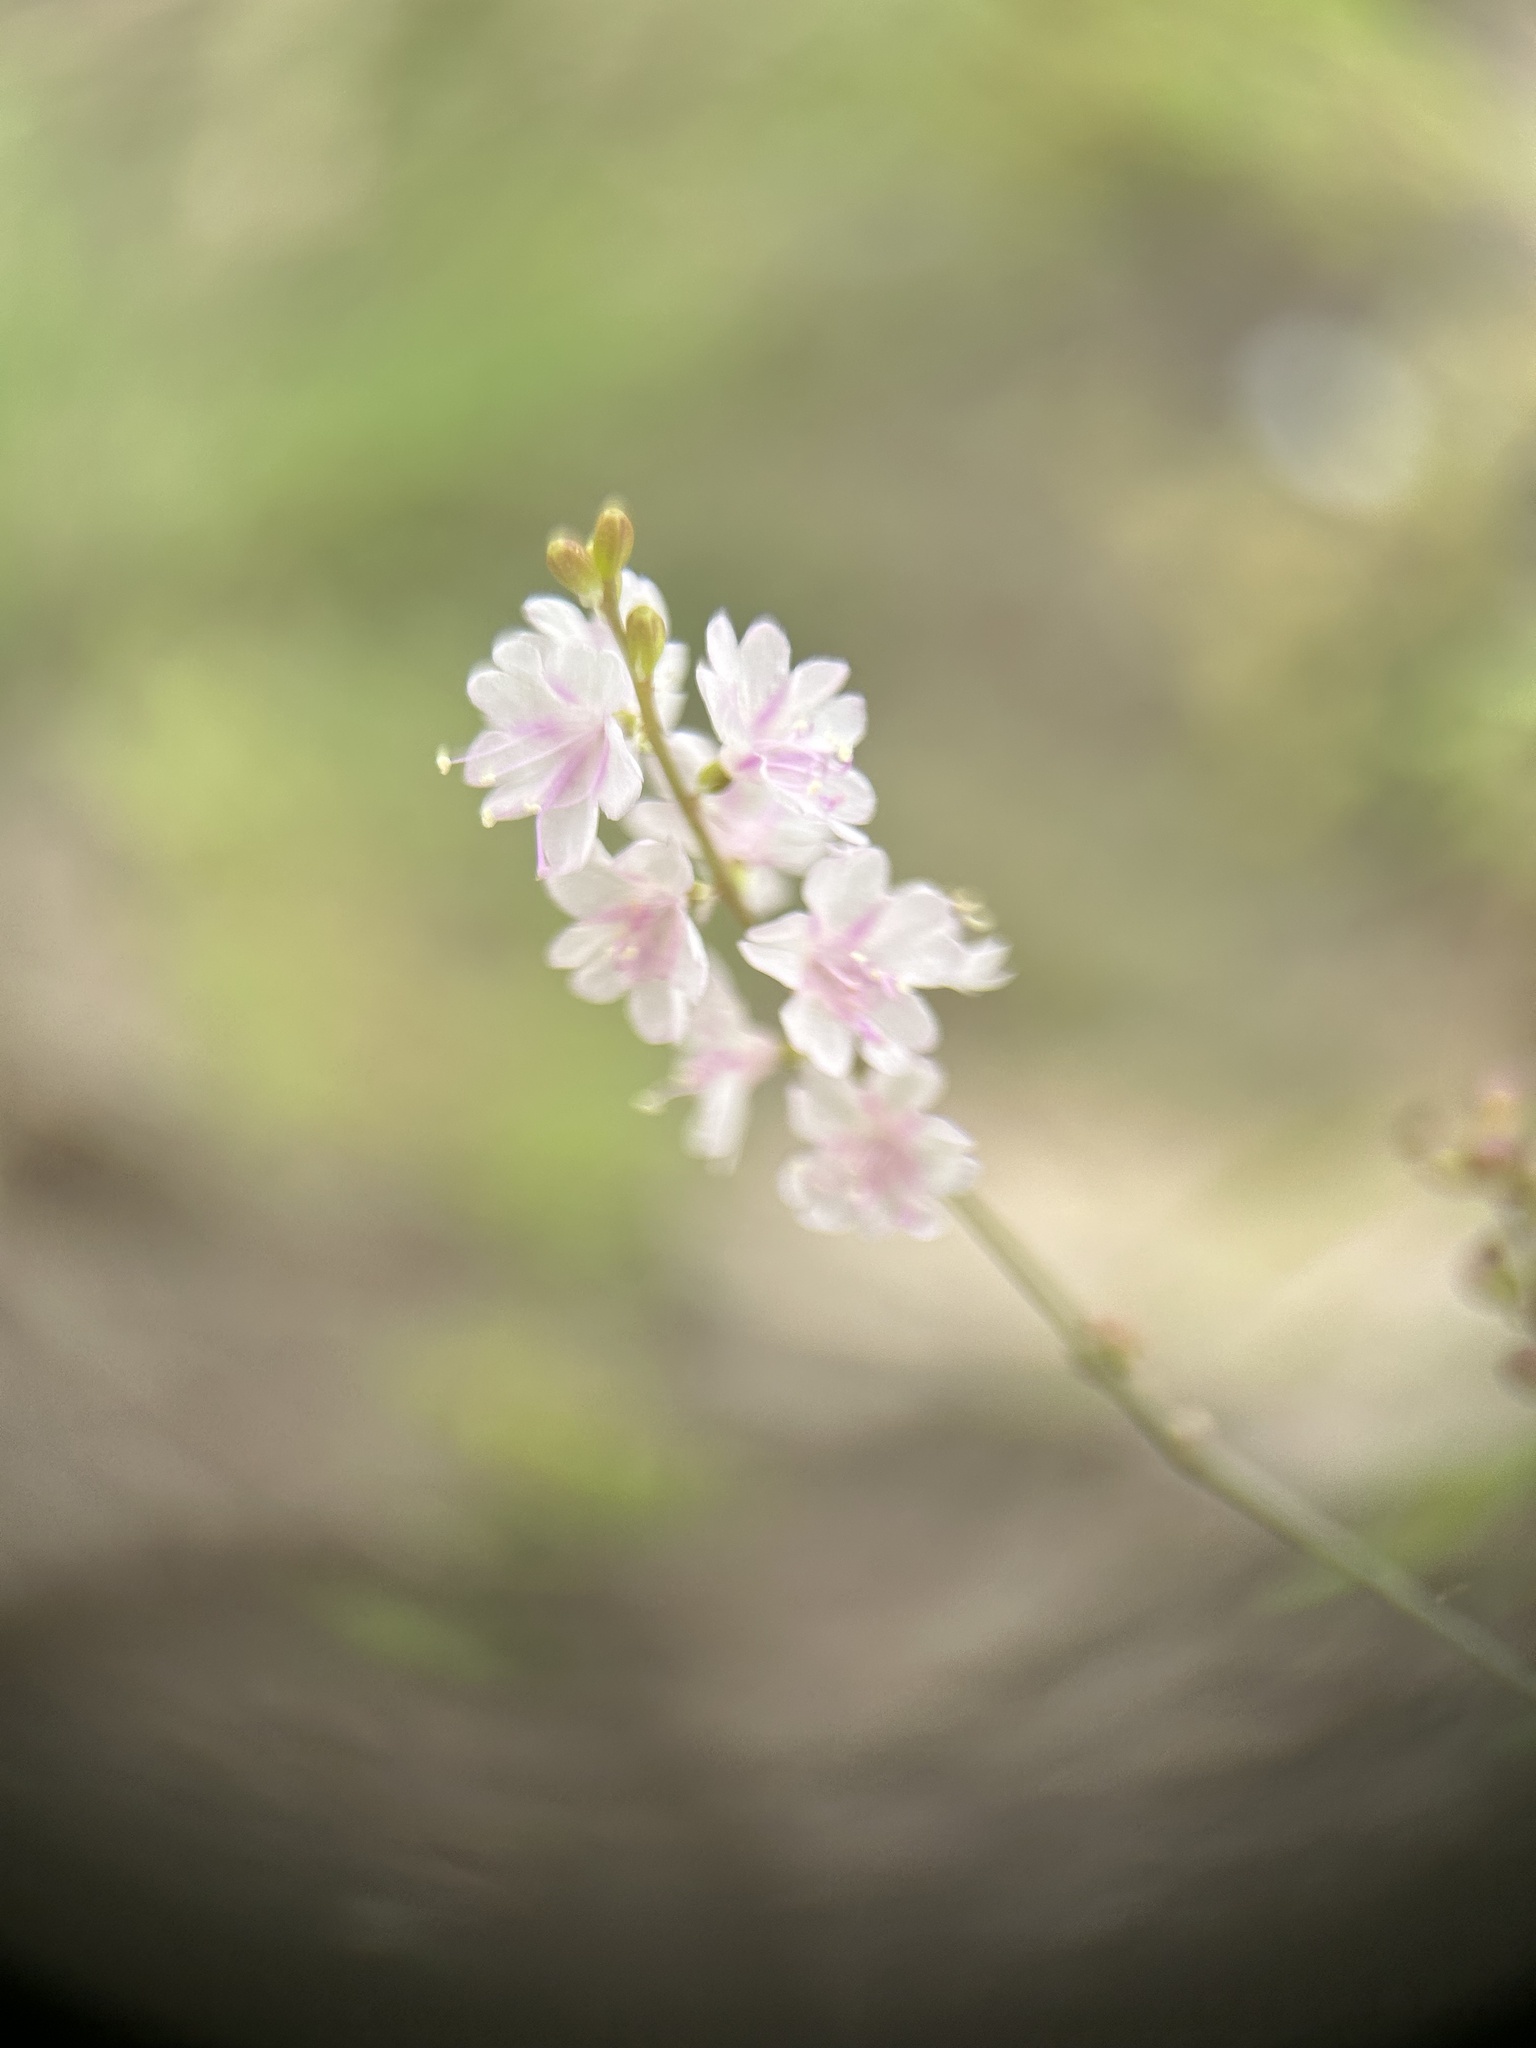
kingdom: Plantae
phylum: Tracheophyta
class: Magnoliopsida
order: Caryophyllales
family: Nyctaginaceae
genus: Boerhavia
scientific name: Boerhavia xantii
